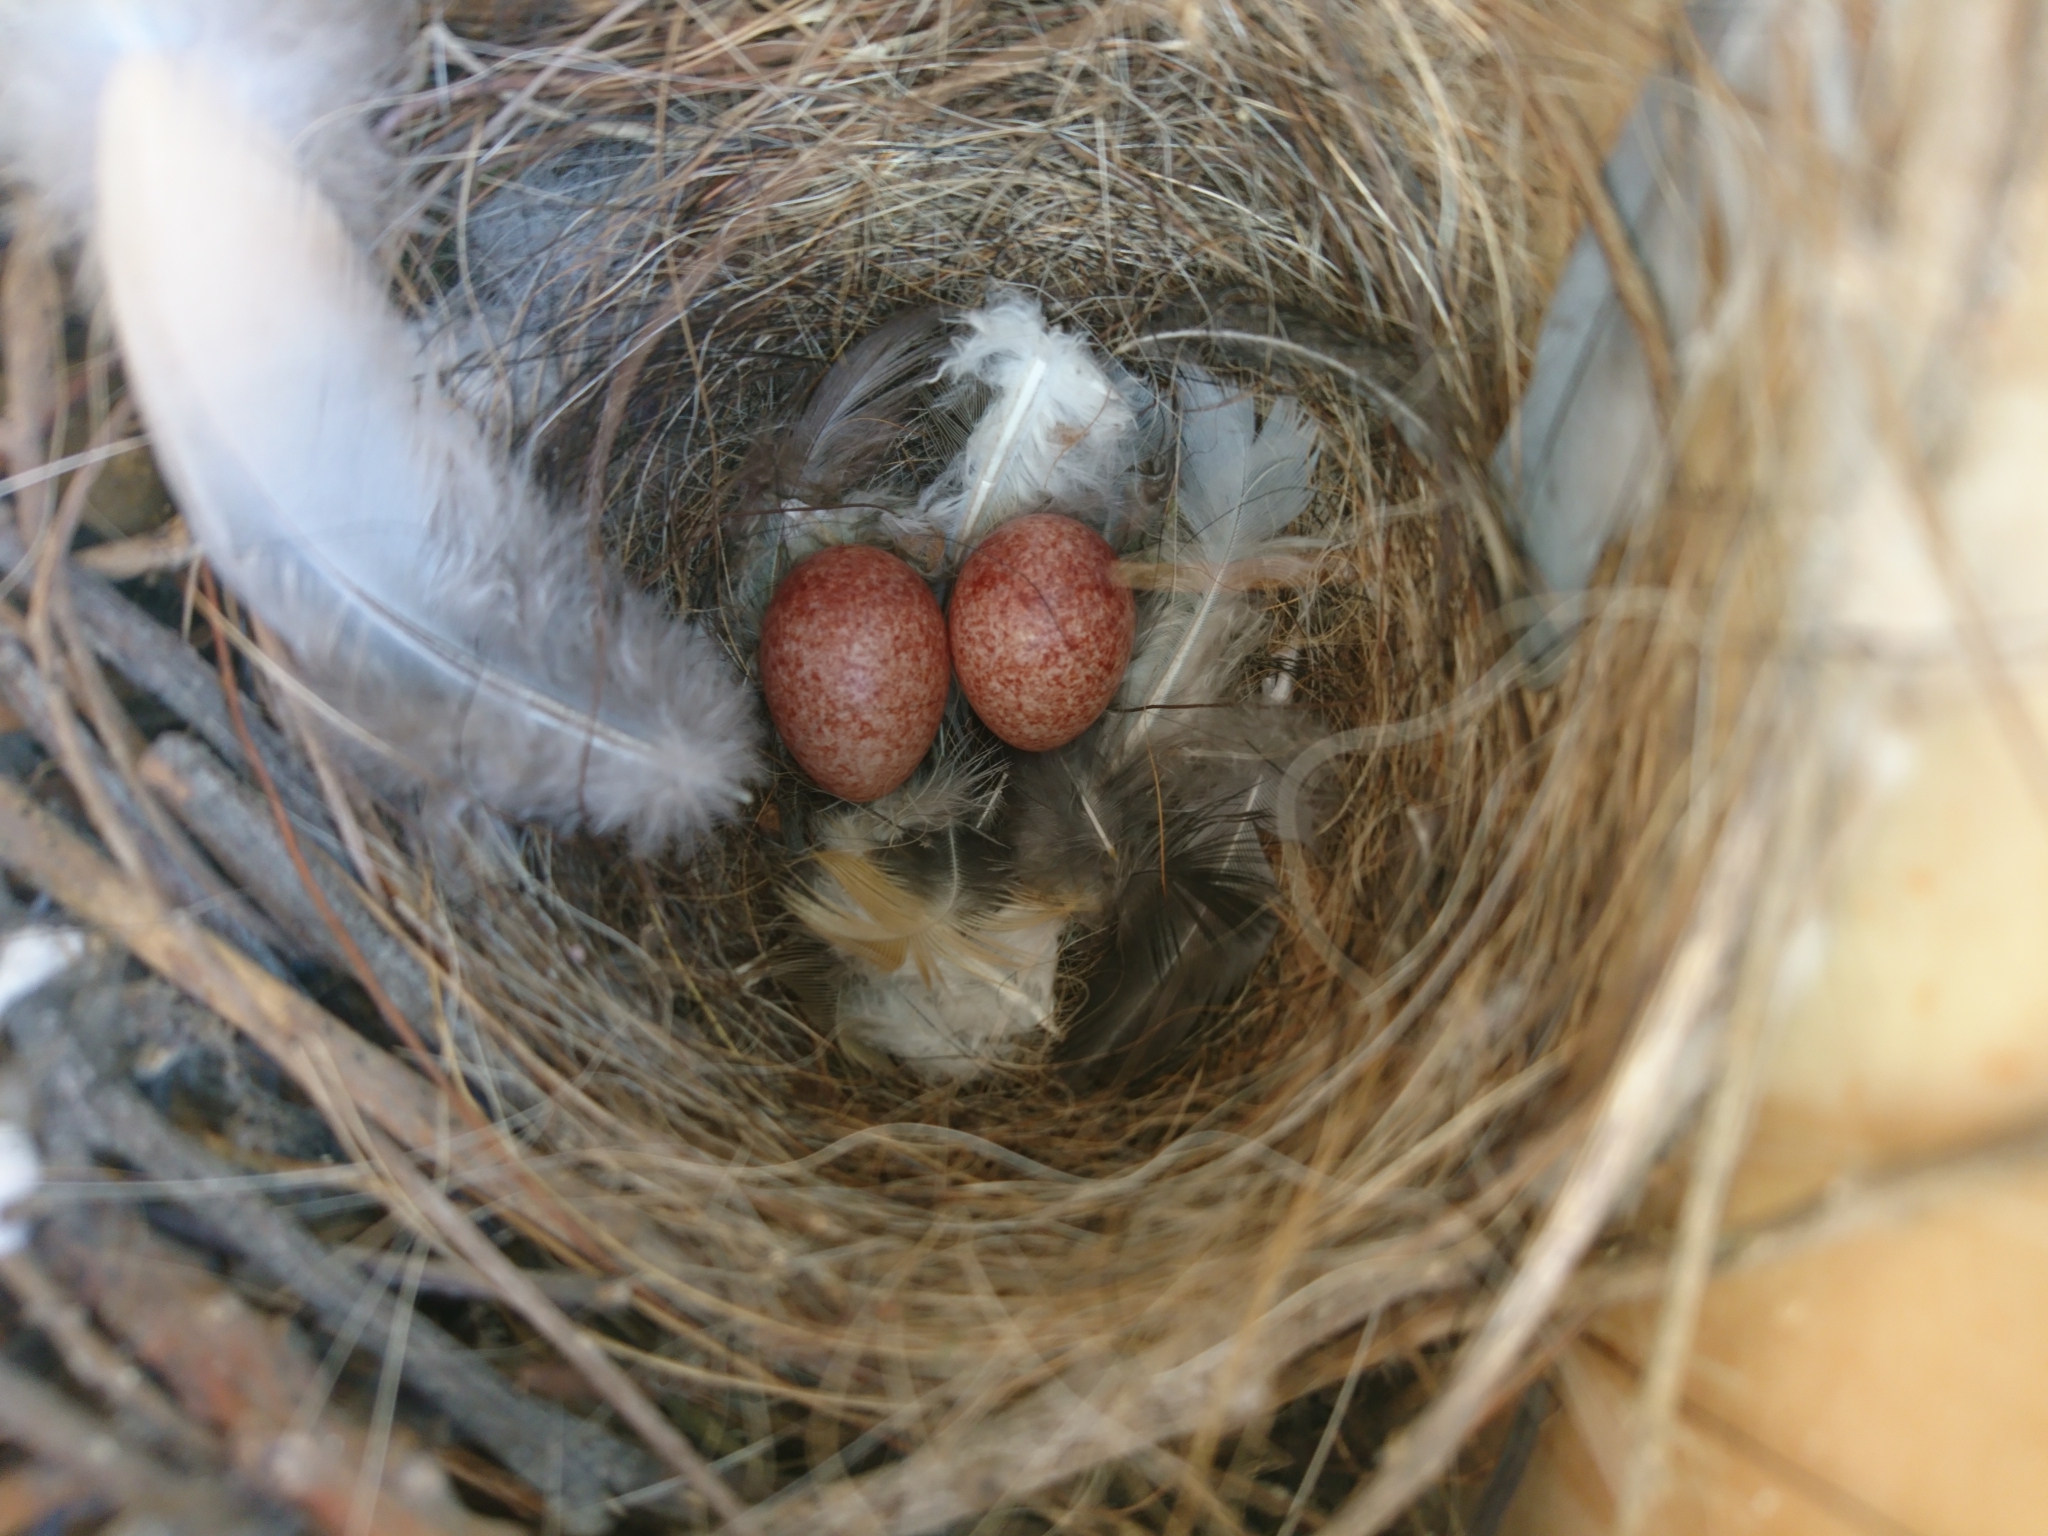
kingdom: Animalia
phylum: Chordata
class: Aves
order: Passeriformes
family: Troglodytidae
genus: Troglodytes
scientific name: Troglodytes aedon
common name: House wren
